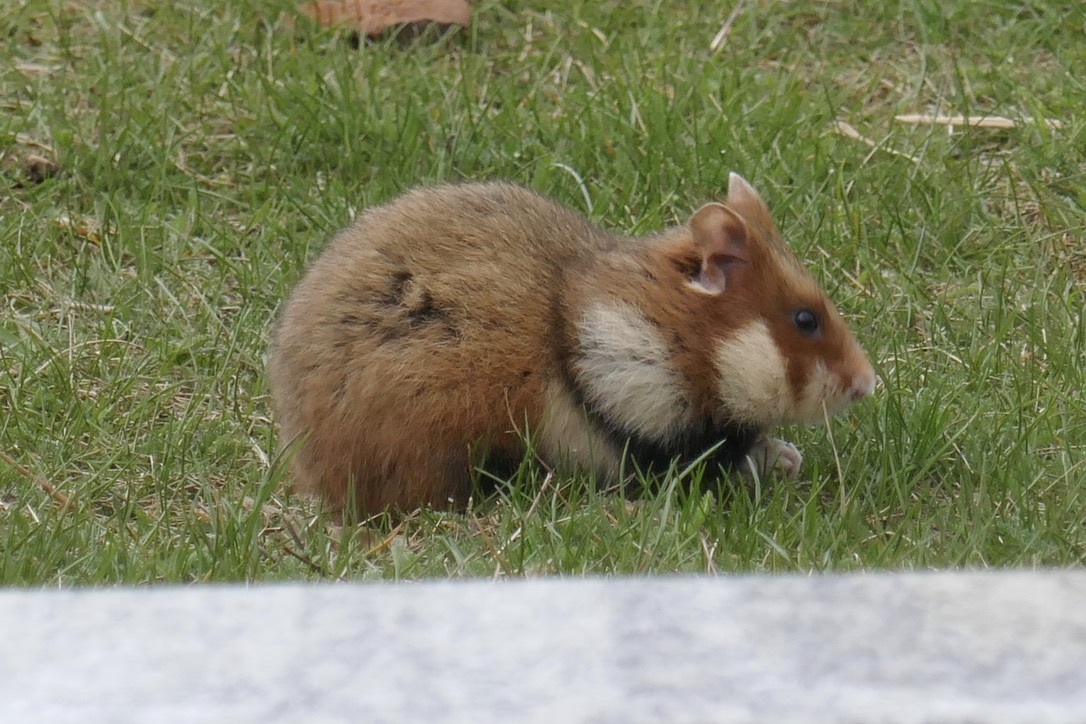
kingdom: Animalia
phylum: Chordata
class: Mammalia
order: Rodentia
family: Cricetidae
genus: Cricetus
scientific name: Cricetus cricetus
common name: Common hamster
